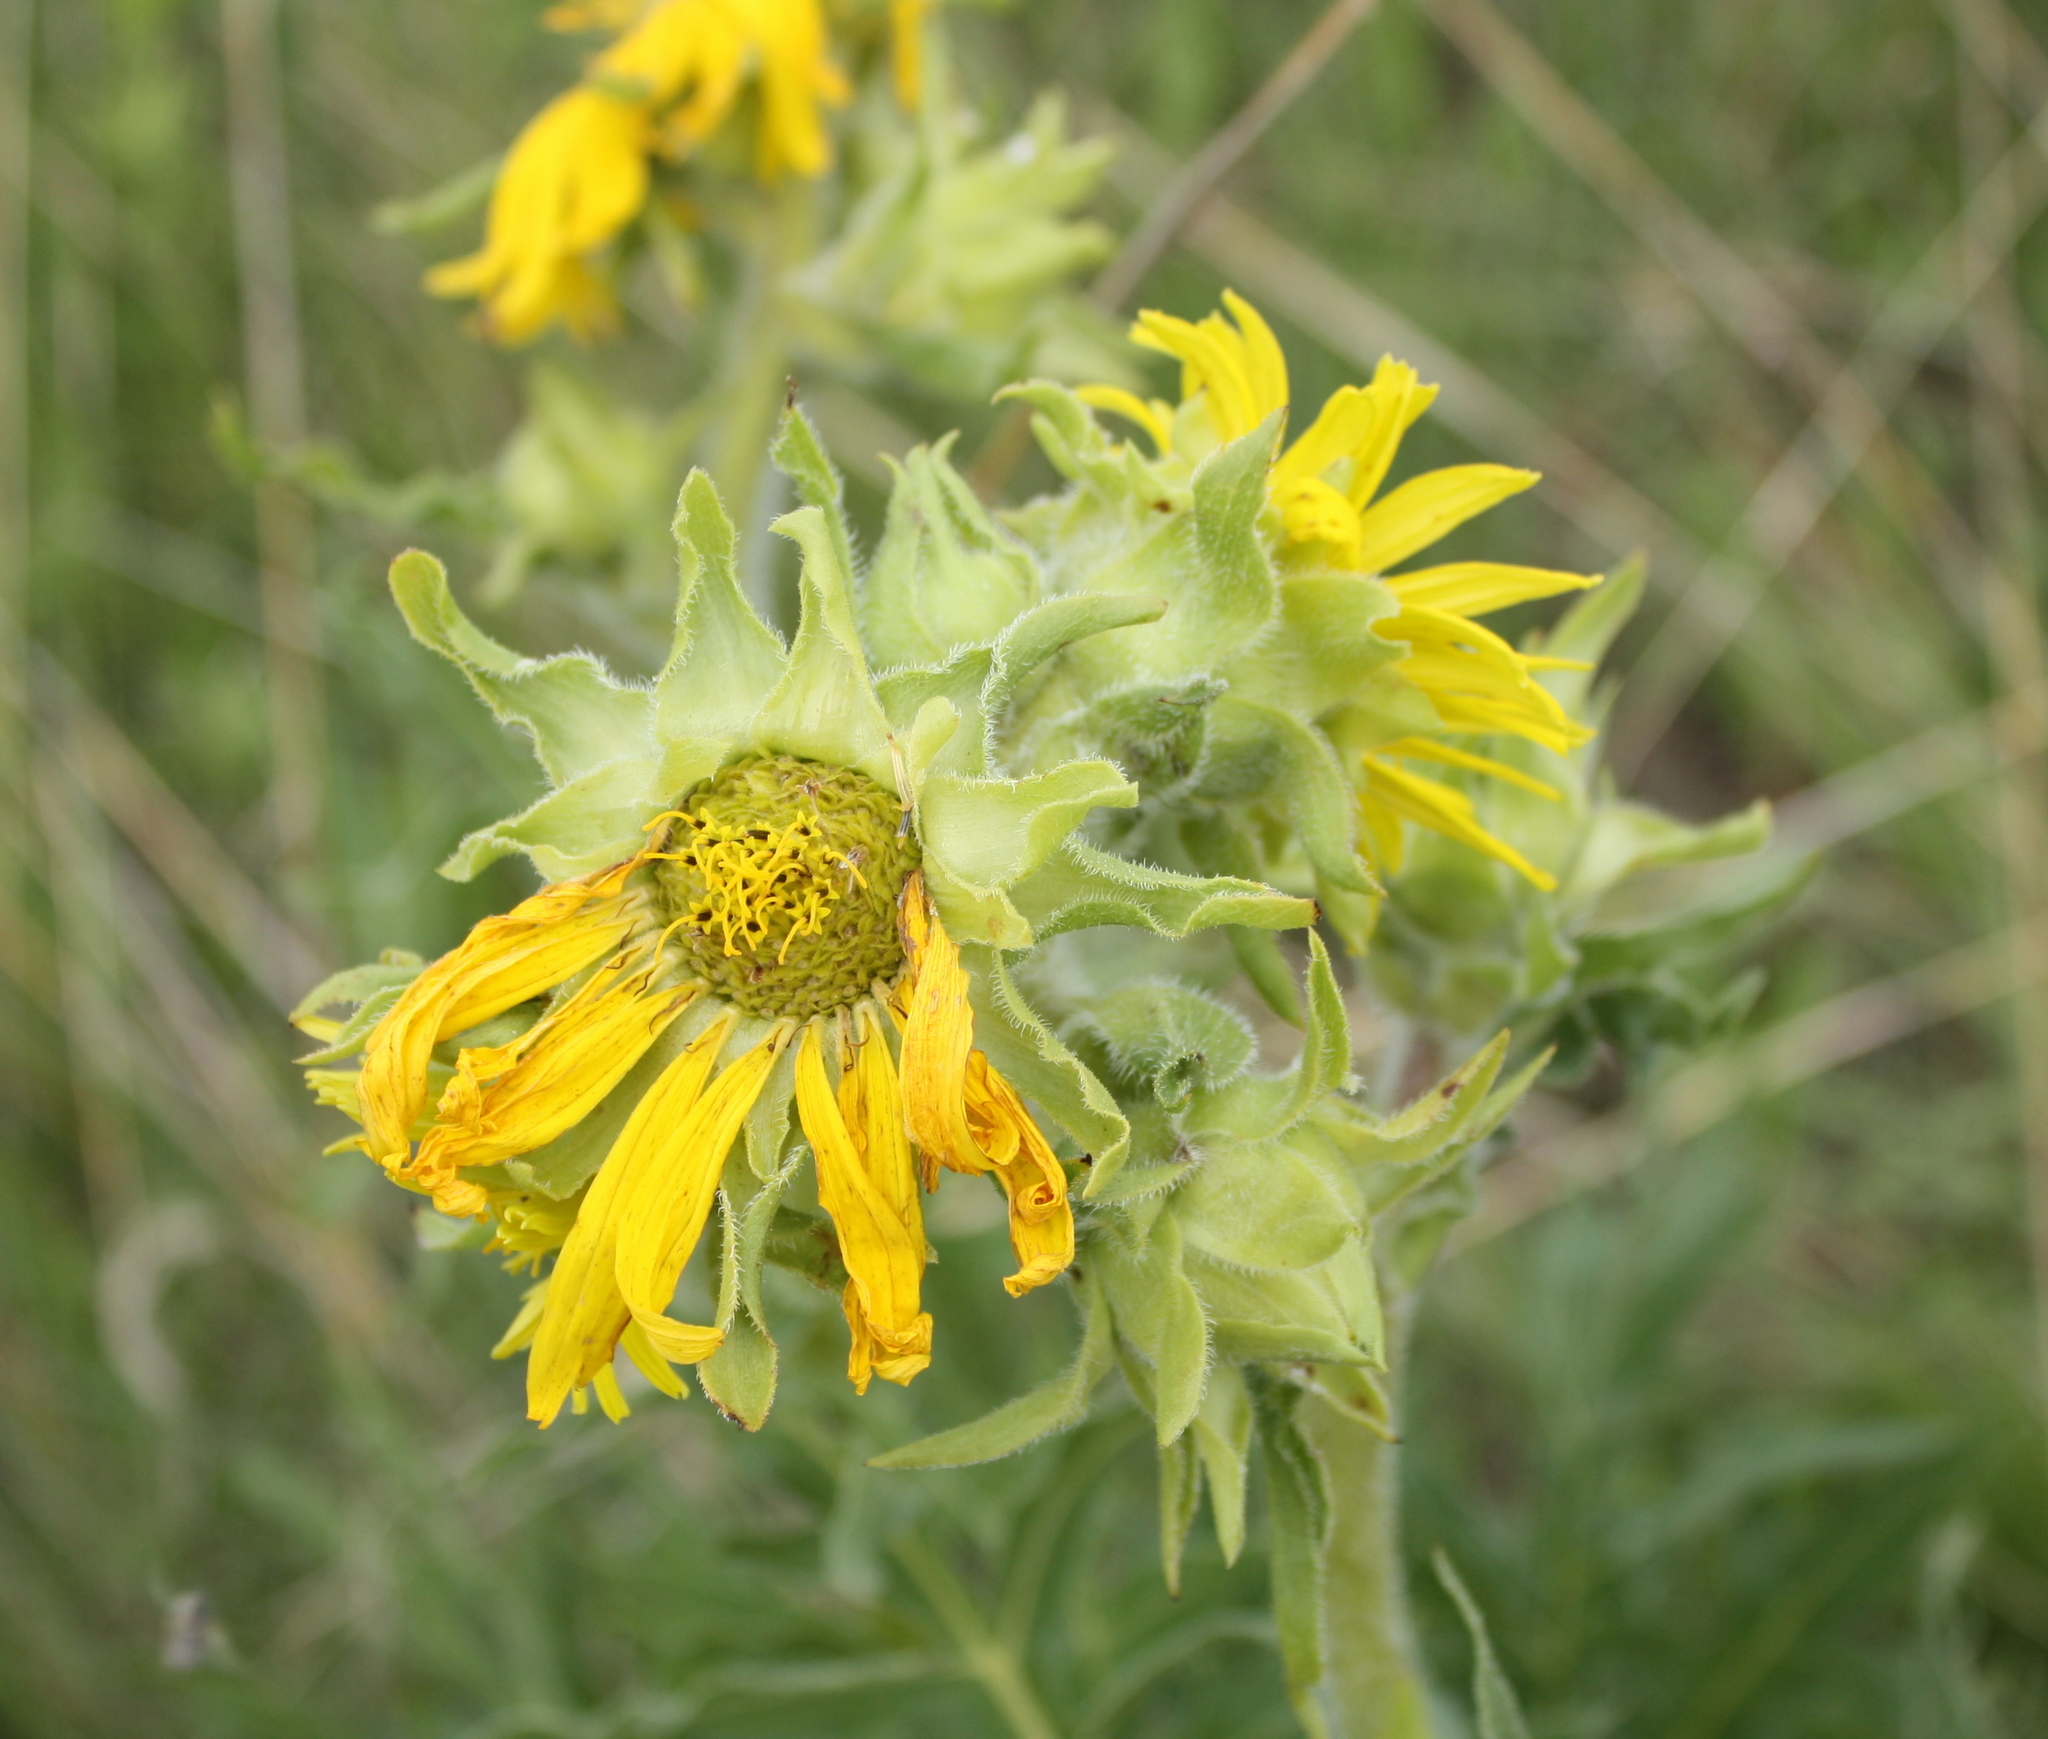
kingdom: Plantae
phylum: Tracheophyta
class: Magnoliopsida
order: Asterales
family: Asteraceae
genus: Silphium
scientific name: Silphium laciniatum
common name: Polarplant
